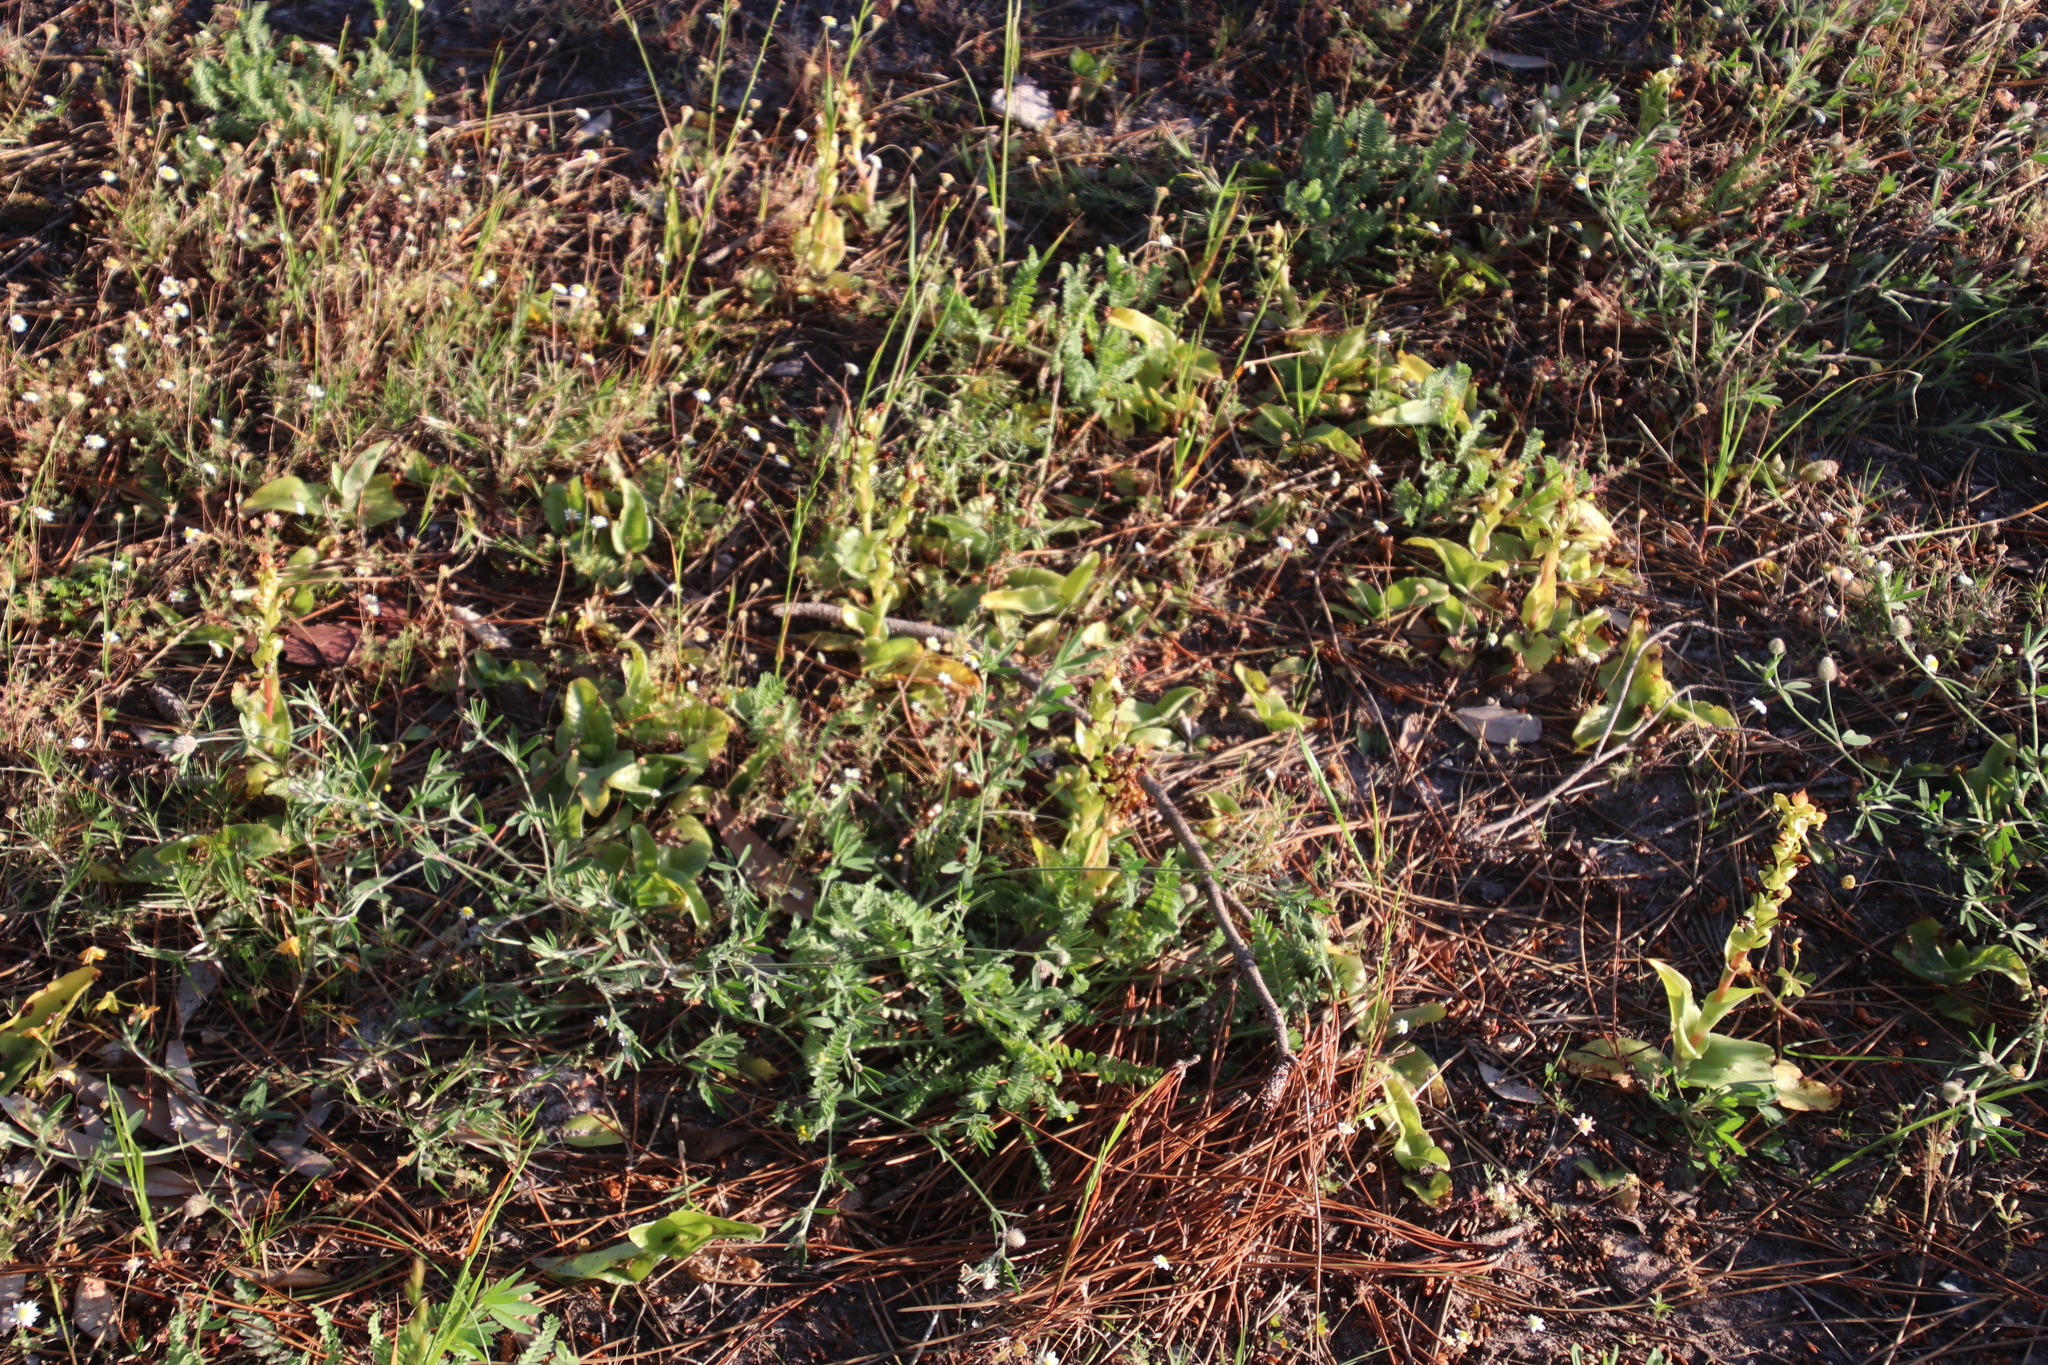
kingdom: Plantae
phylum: Tracheophyta
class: Liliopsida
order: Asparagales
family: Orchidaceae
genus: Satyrium
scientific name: Satyrium odorum
